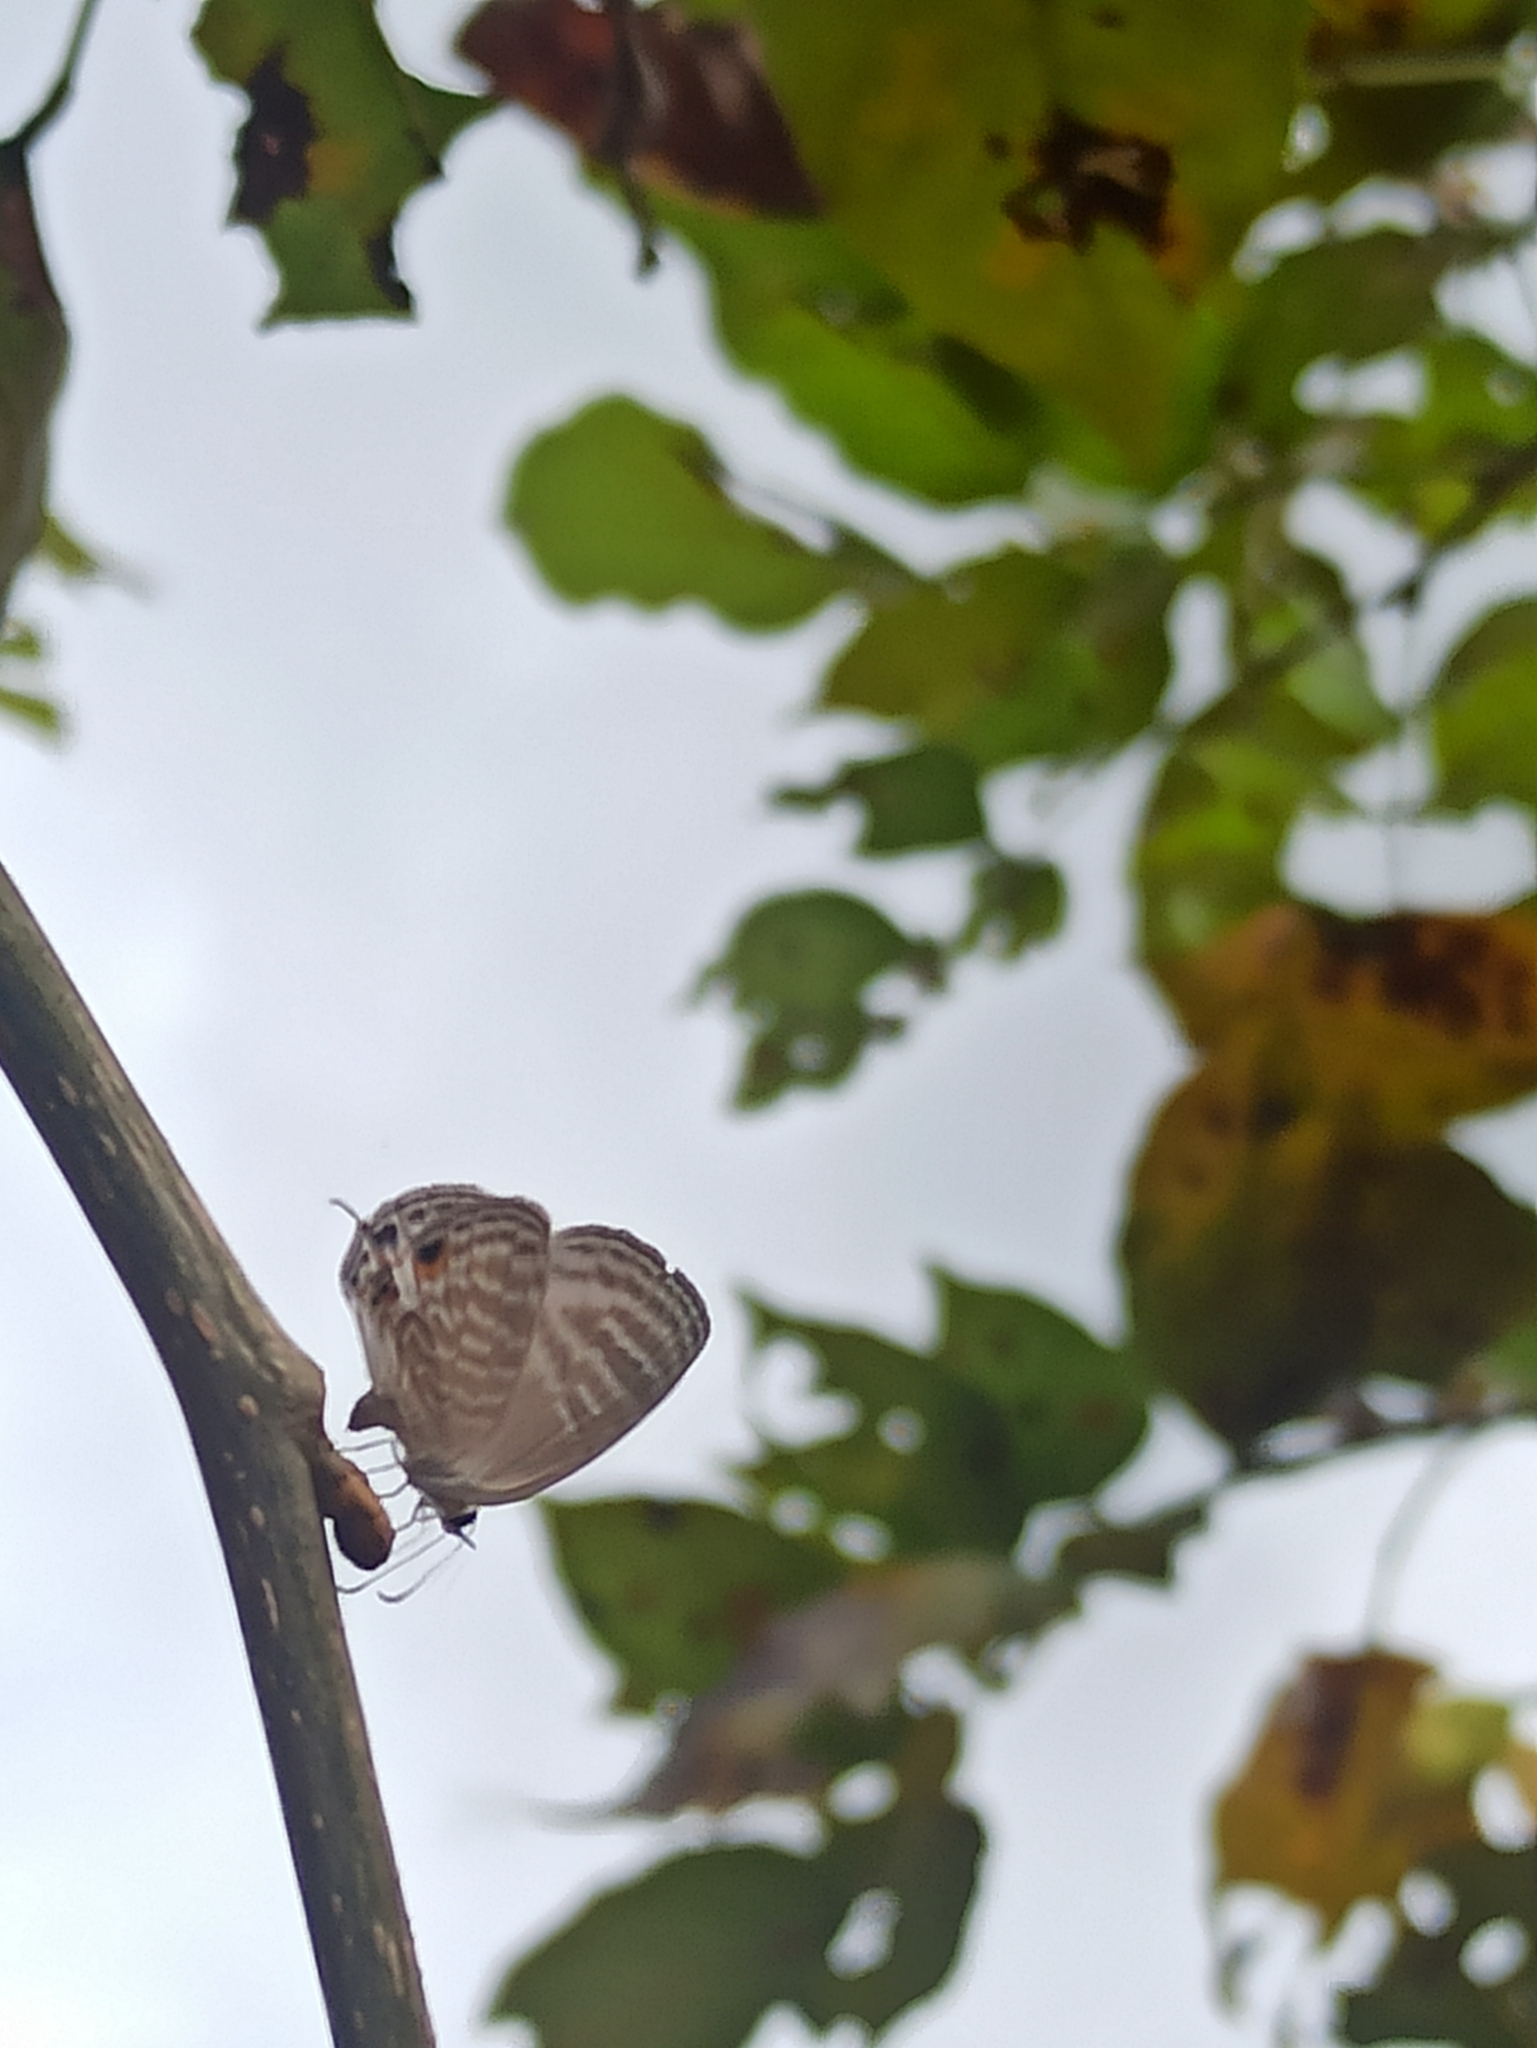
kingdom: Animalia
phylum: Arthropoda
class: Insecta
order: Lepidoptera
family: Lycaenidae
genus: Jamides
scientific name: Jamides celeno
